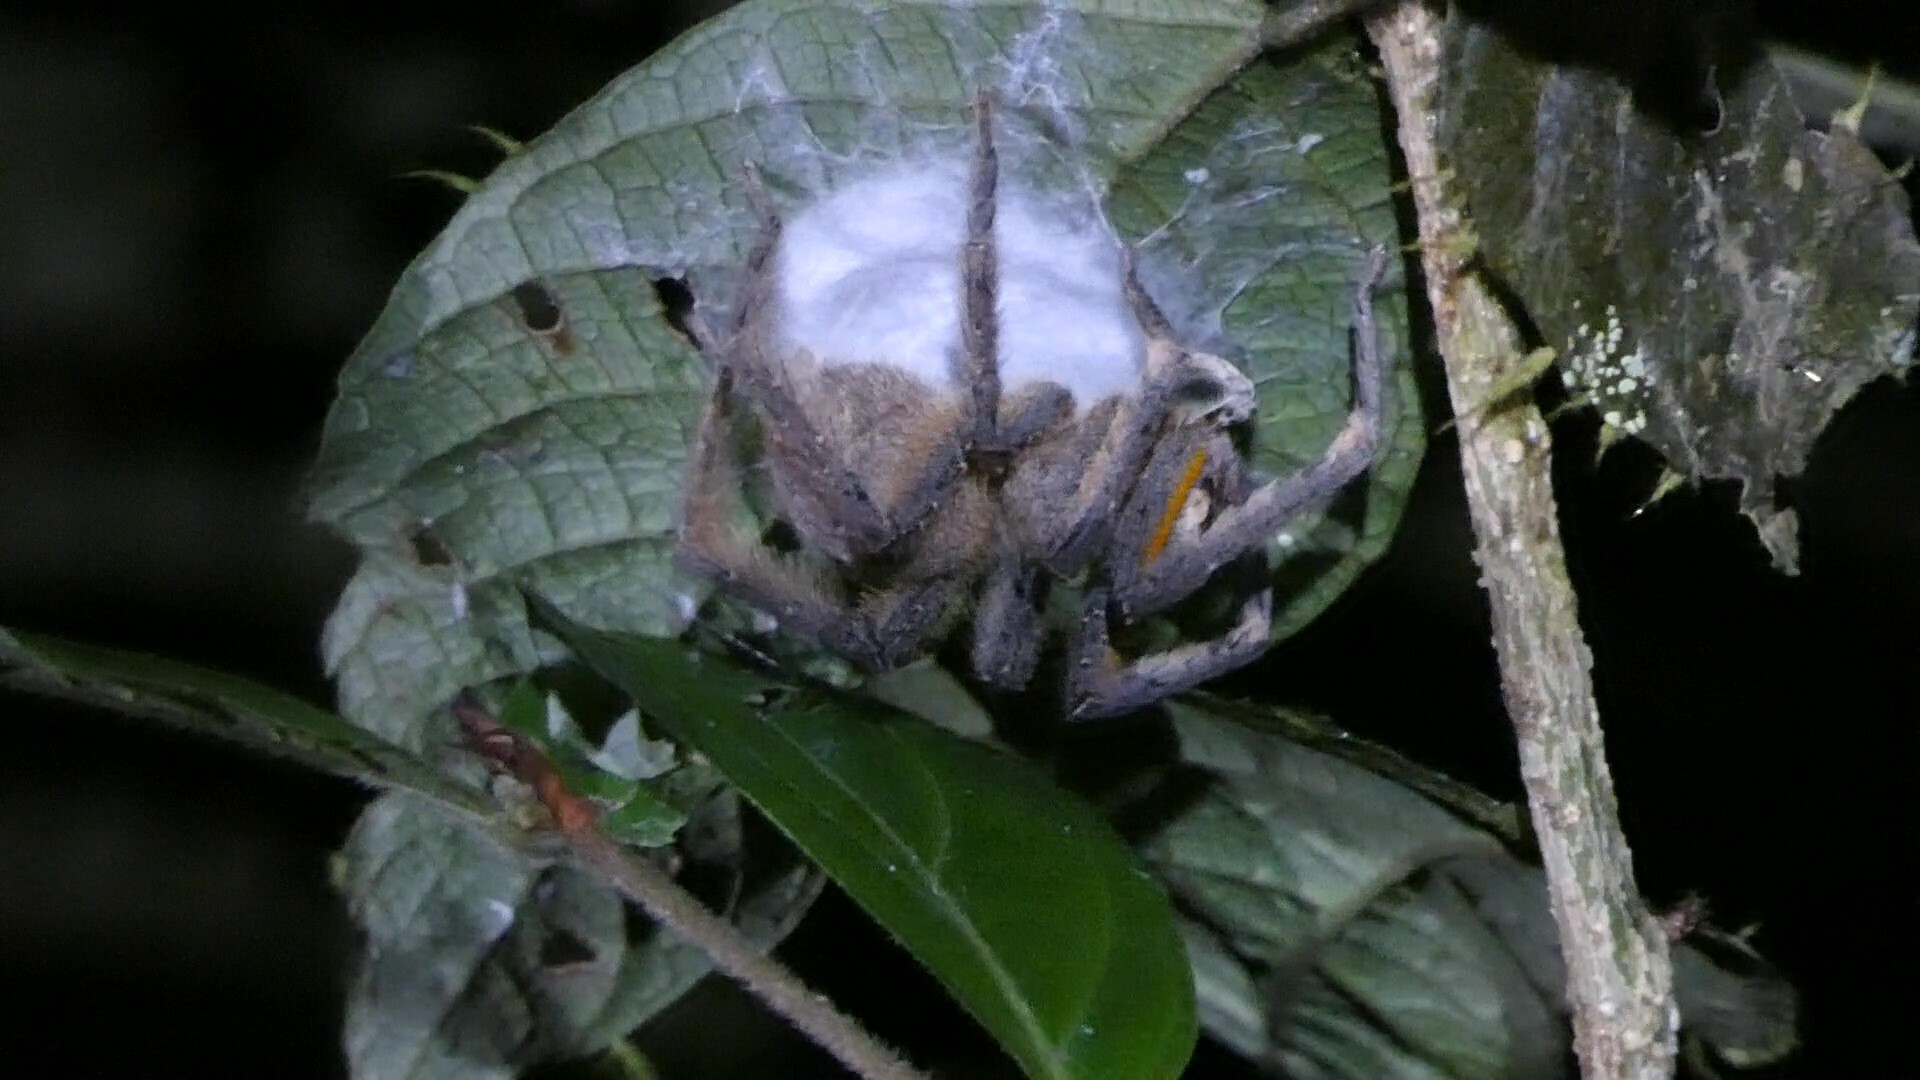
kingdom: Animalia
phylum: Arthropoda
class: Arachnida
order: Araneae
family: Ctenidae
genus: Phoneutria
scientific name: Phoneutria boliviensis
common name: Wandering spiders
